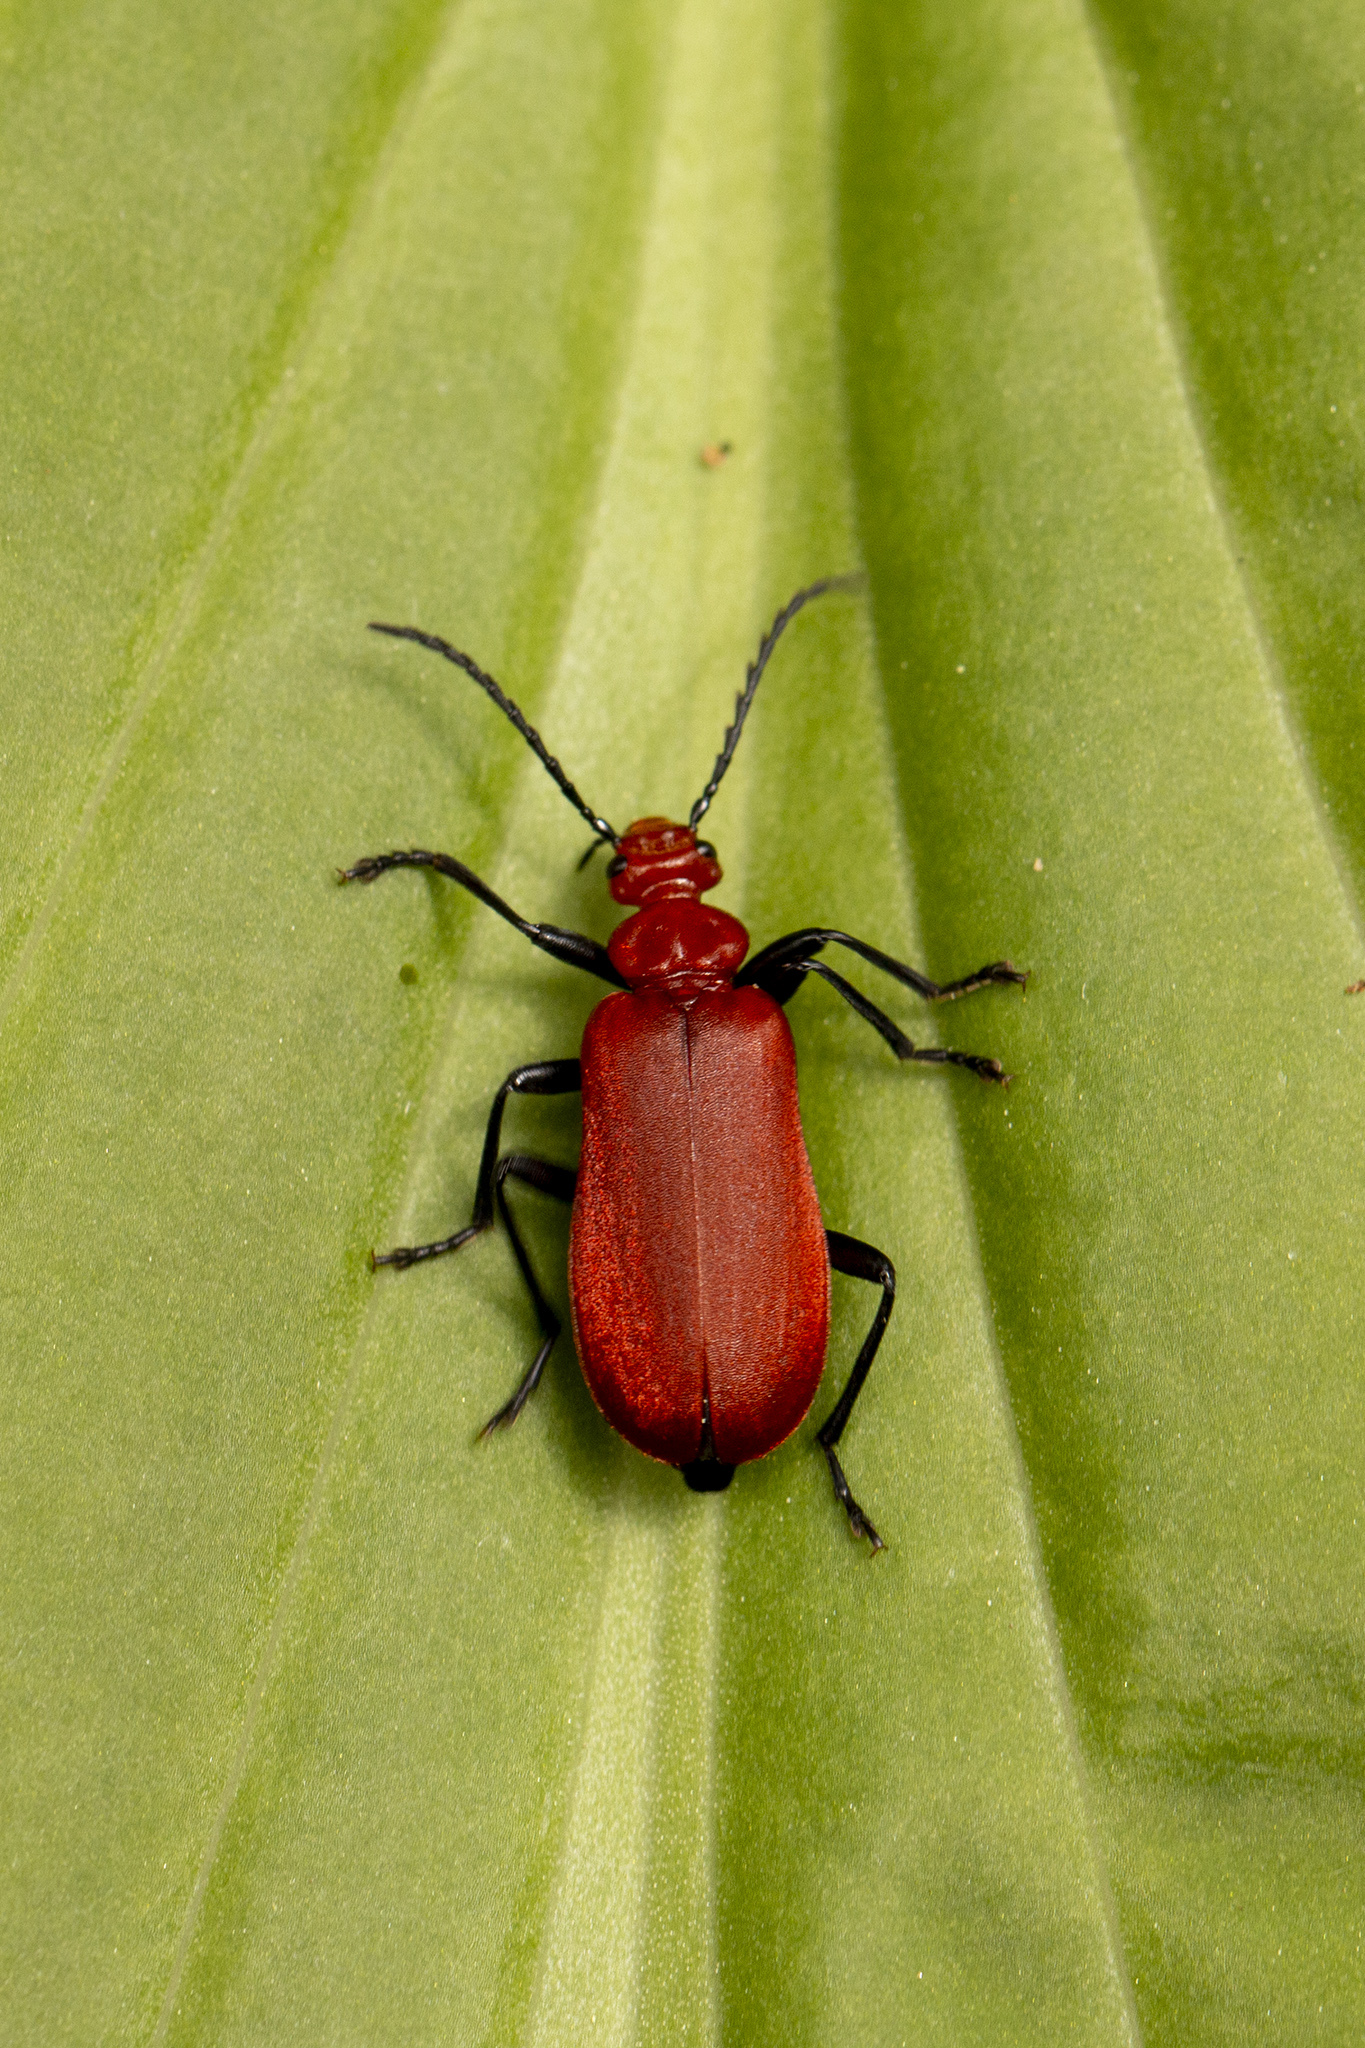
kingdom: Animalia
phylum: Arthropoda
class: Insecta
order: Coleoptera
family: Pyrochroidae
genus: Pyrochroa
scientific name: Pyrochroa serraticornis
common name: Red-headed cardinal beetle
